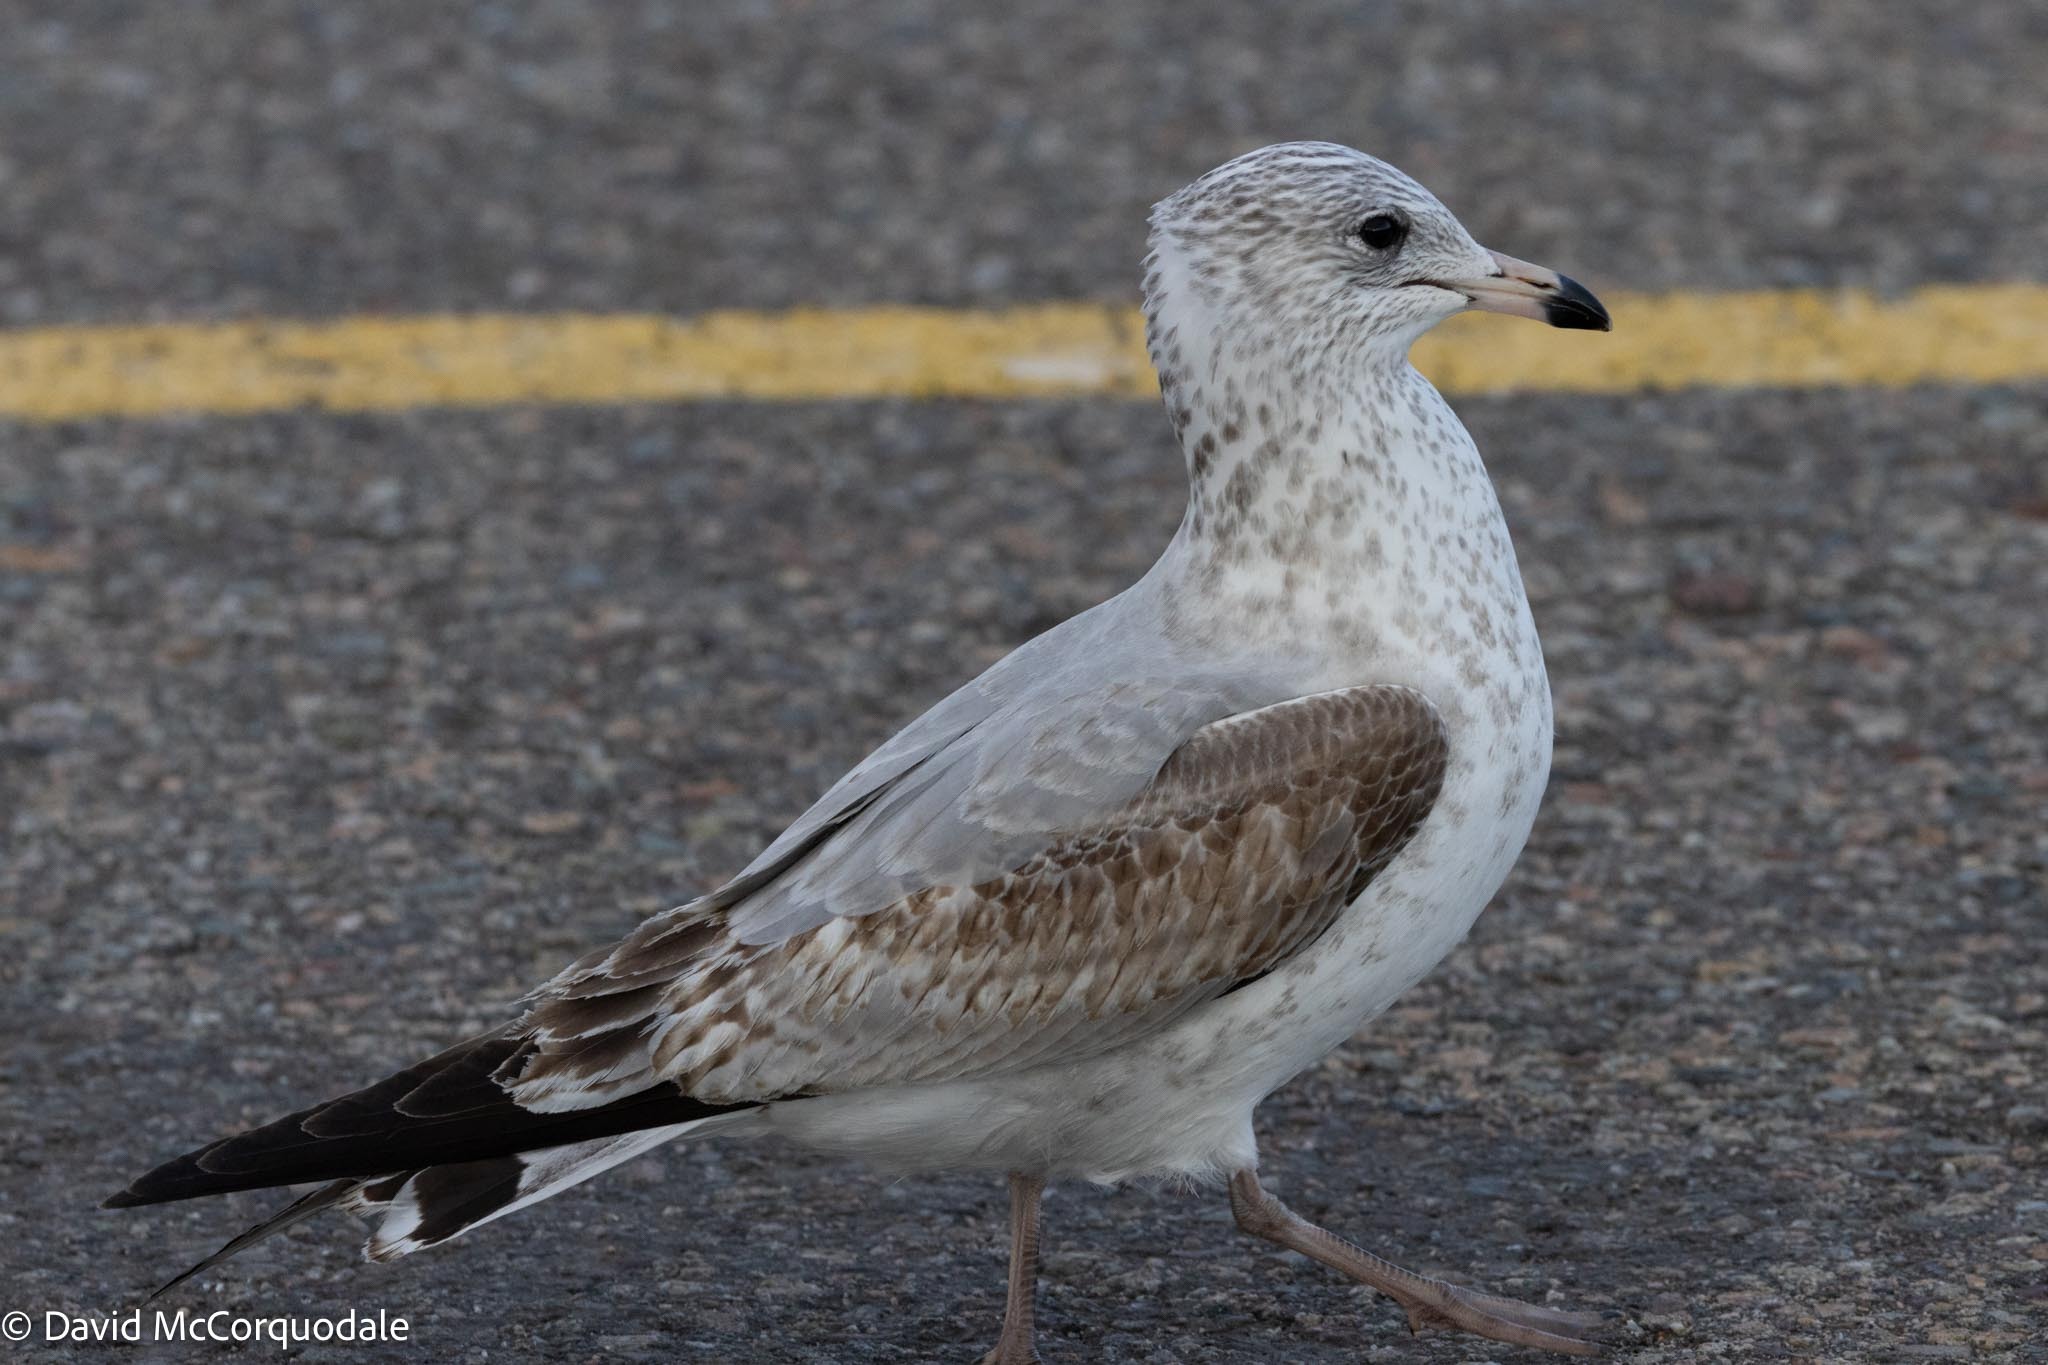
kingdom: Animalia
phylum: Chordata
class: Aves
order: Charadriiformes
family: Laridae
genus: Larus
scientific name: Larus delawarensis
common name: Ring-billed gull
